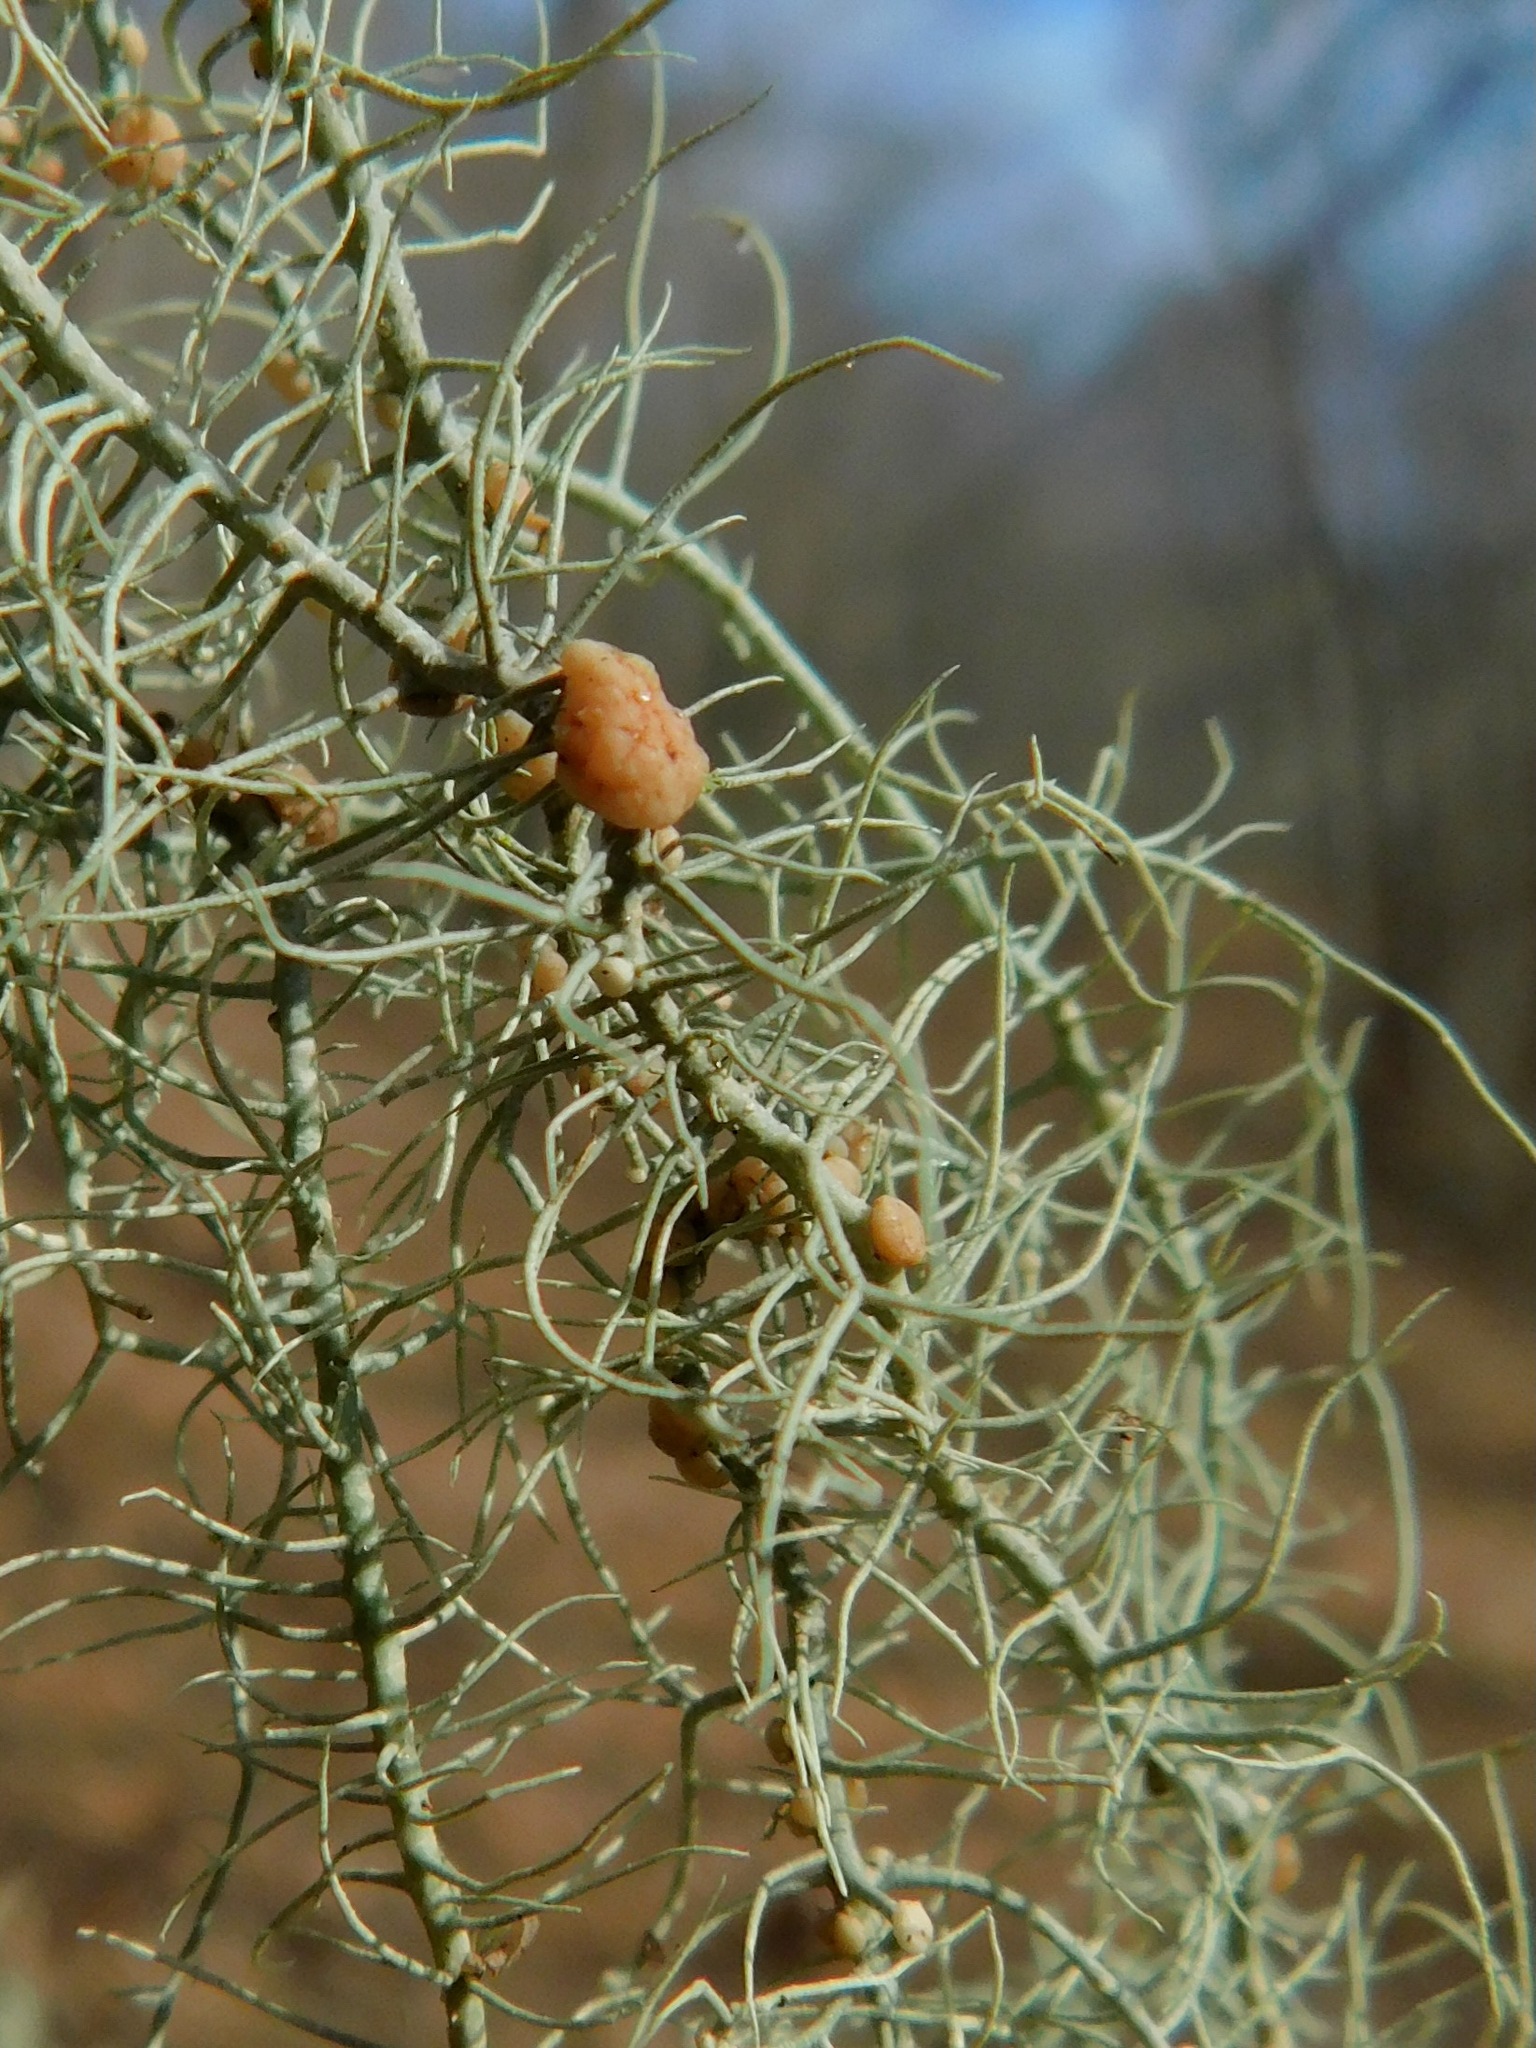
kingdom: Fungi
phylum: Basidiomycota
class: Cystobasidiomycetes
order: Cyphobasidiales
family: Cyphobasidiaceae
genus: Cyphobasidium
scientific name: Cyphobasidium usneicola
